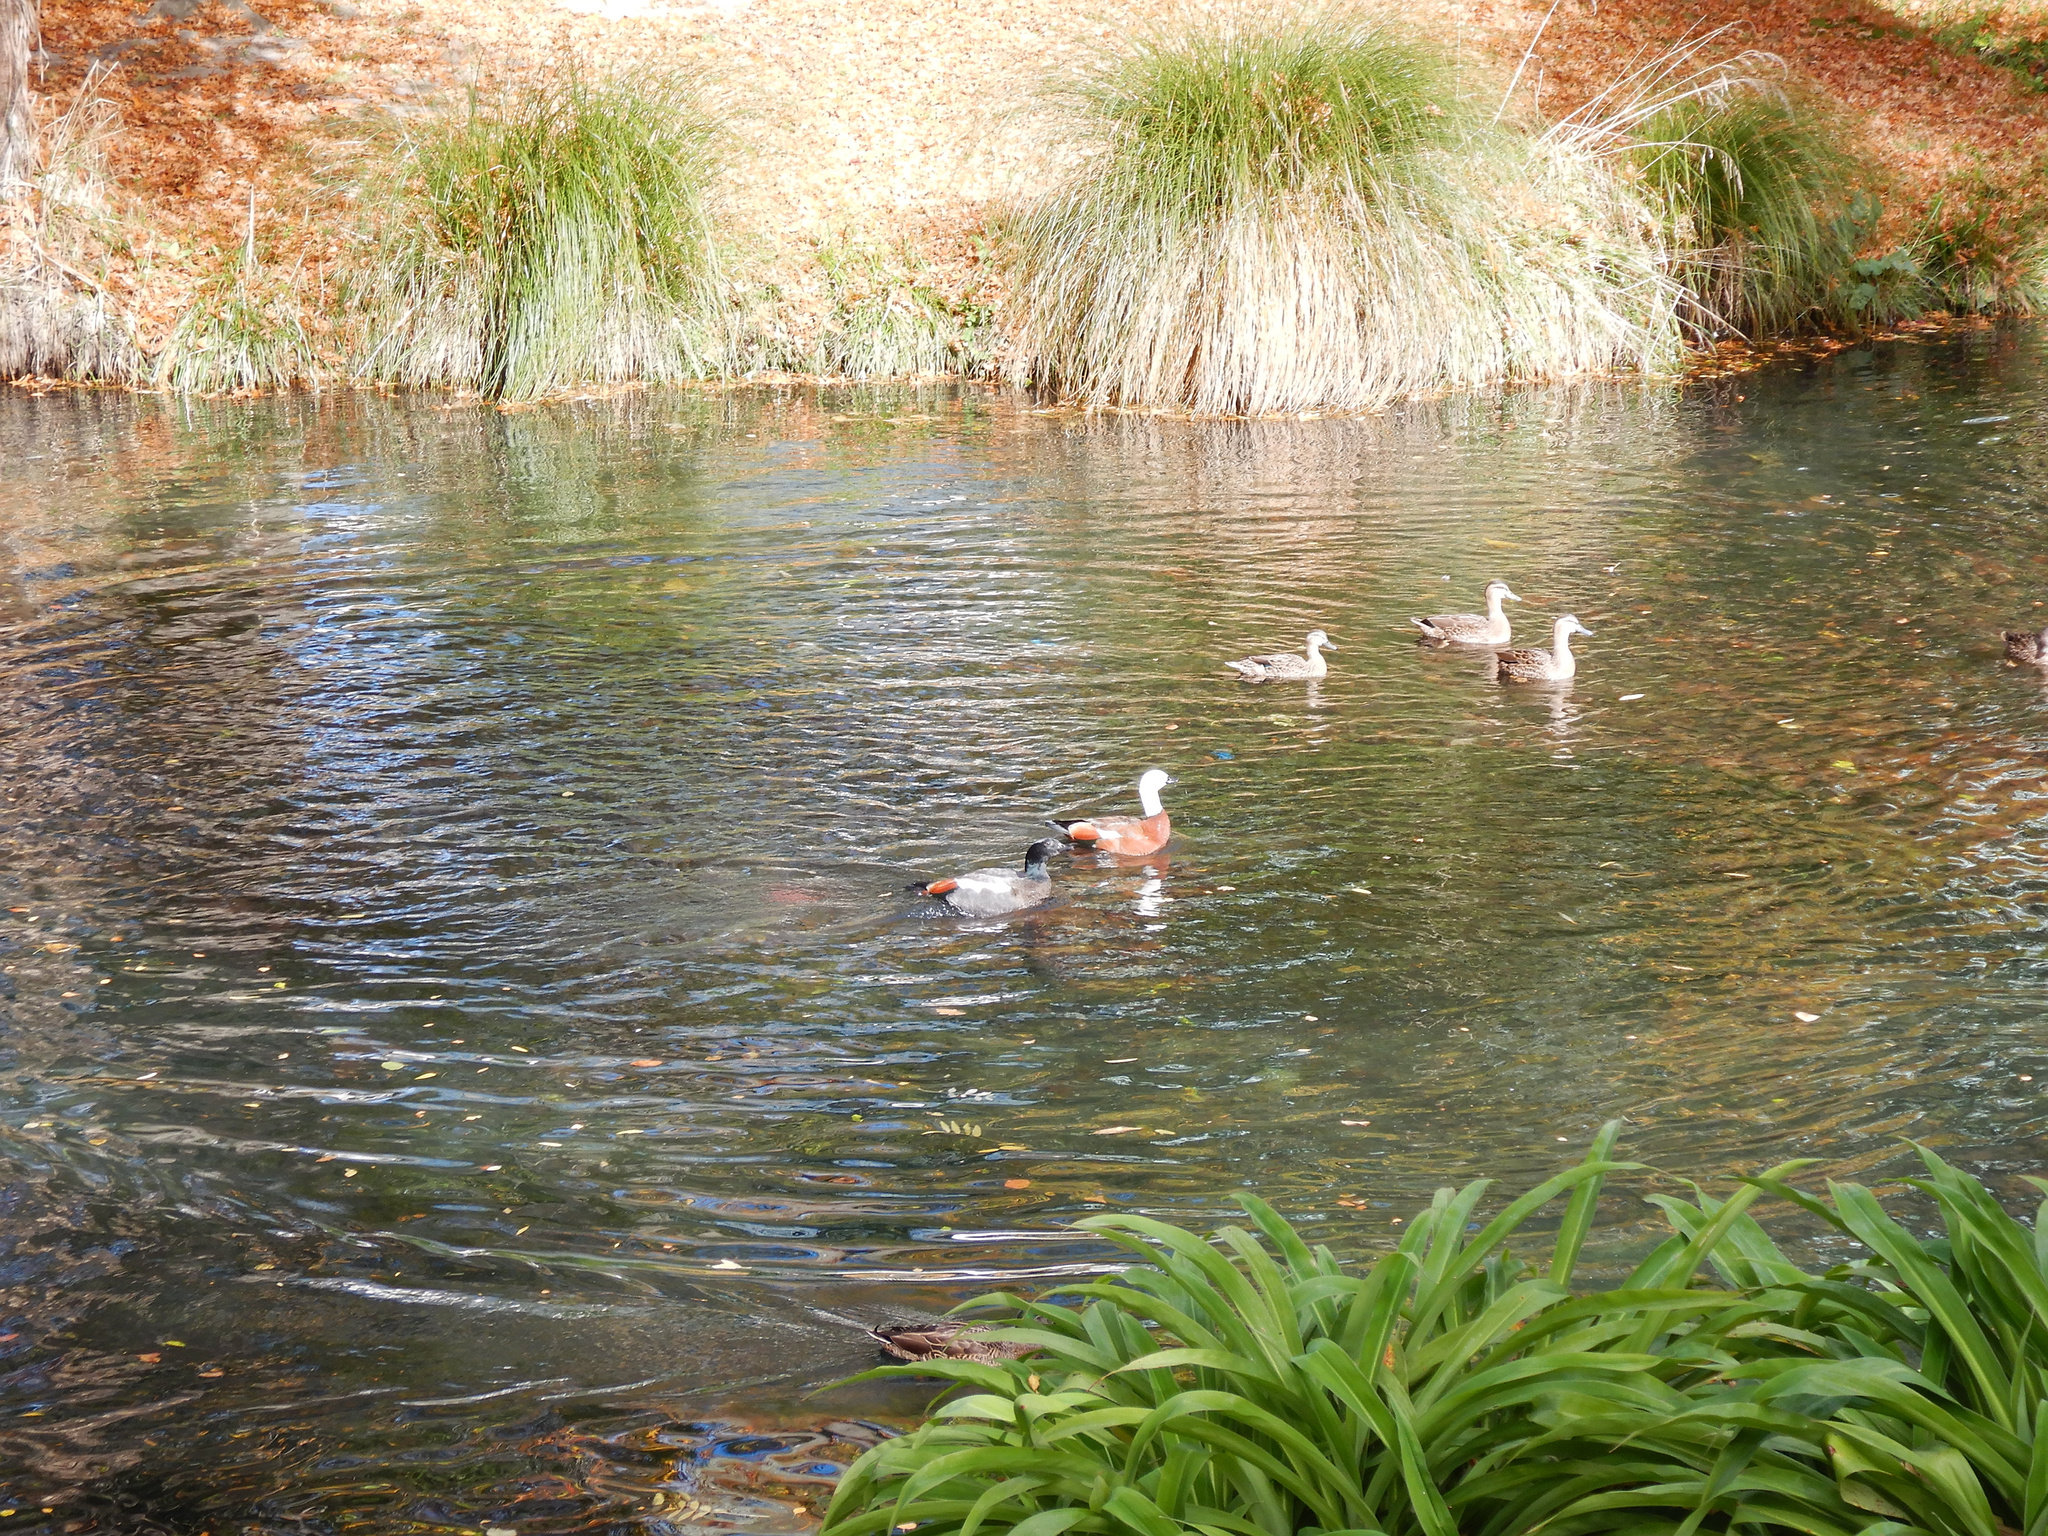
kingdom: Animalia
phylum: Chordata
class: Aves
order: Anseriformes
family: Anatidae
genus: Tadorna
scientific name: Tadorna variegata
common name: Paradise shelduck
